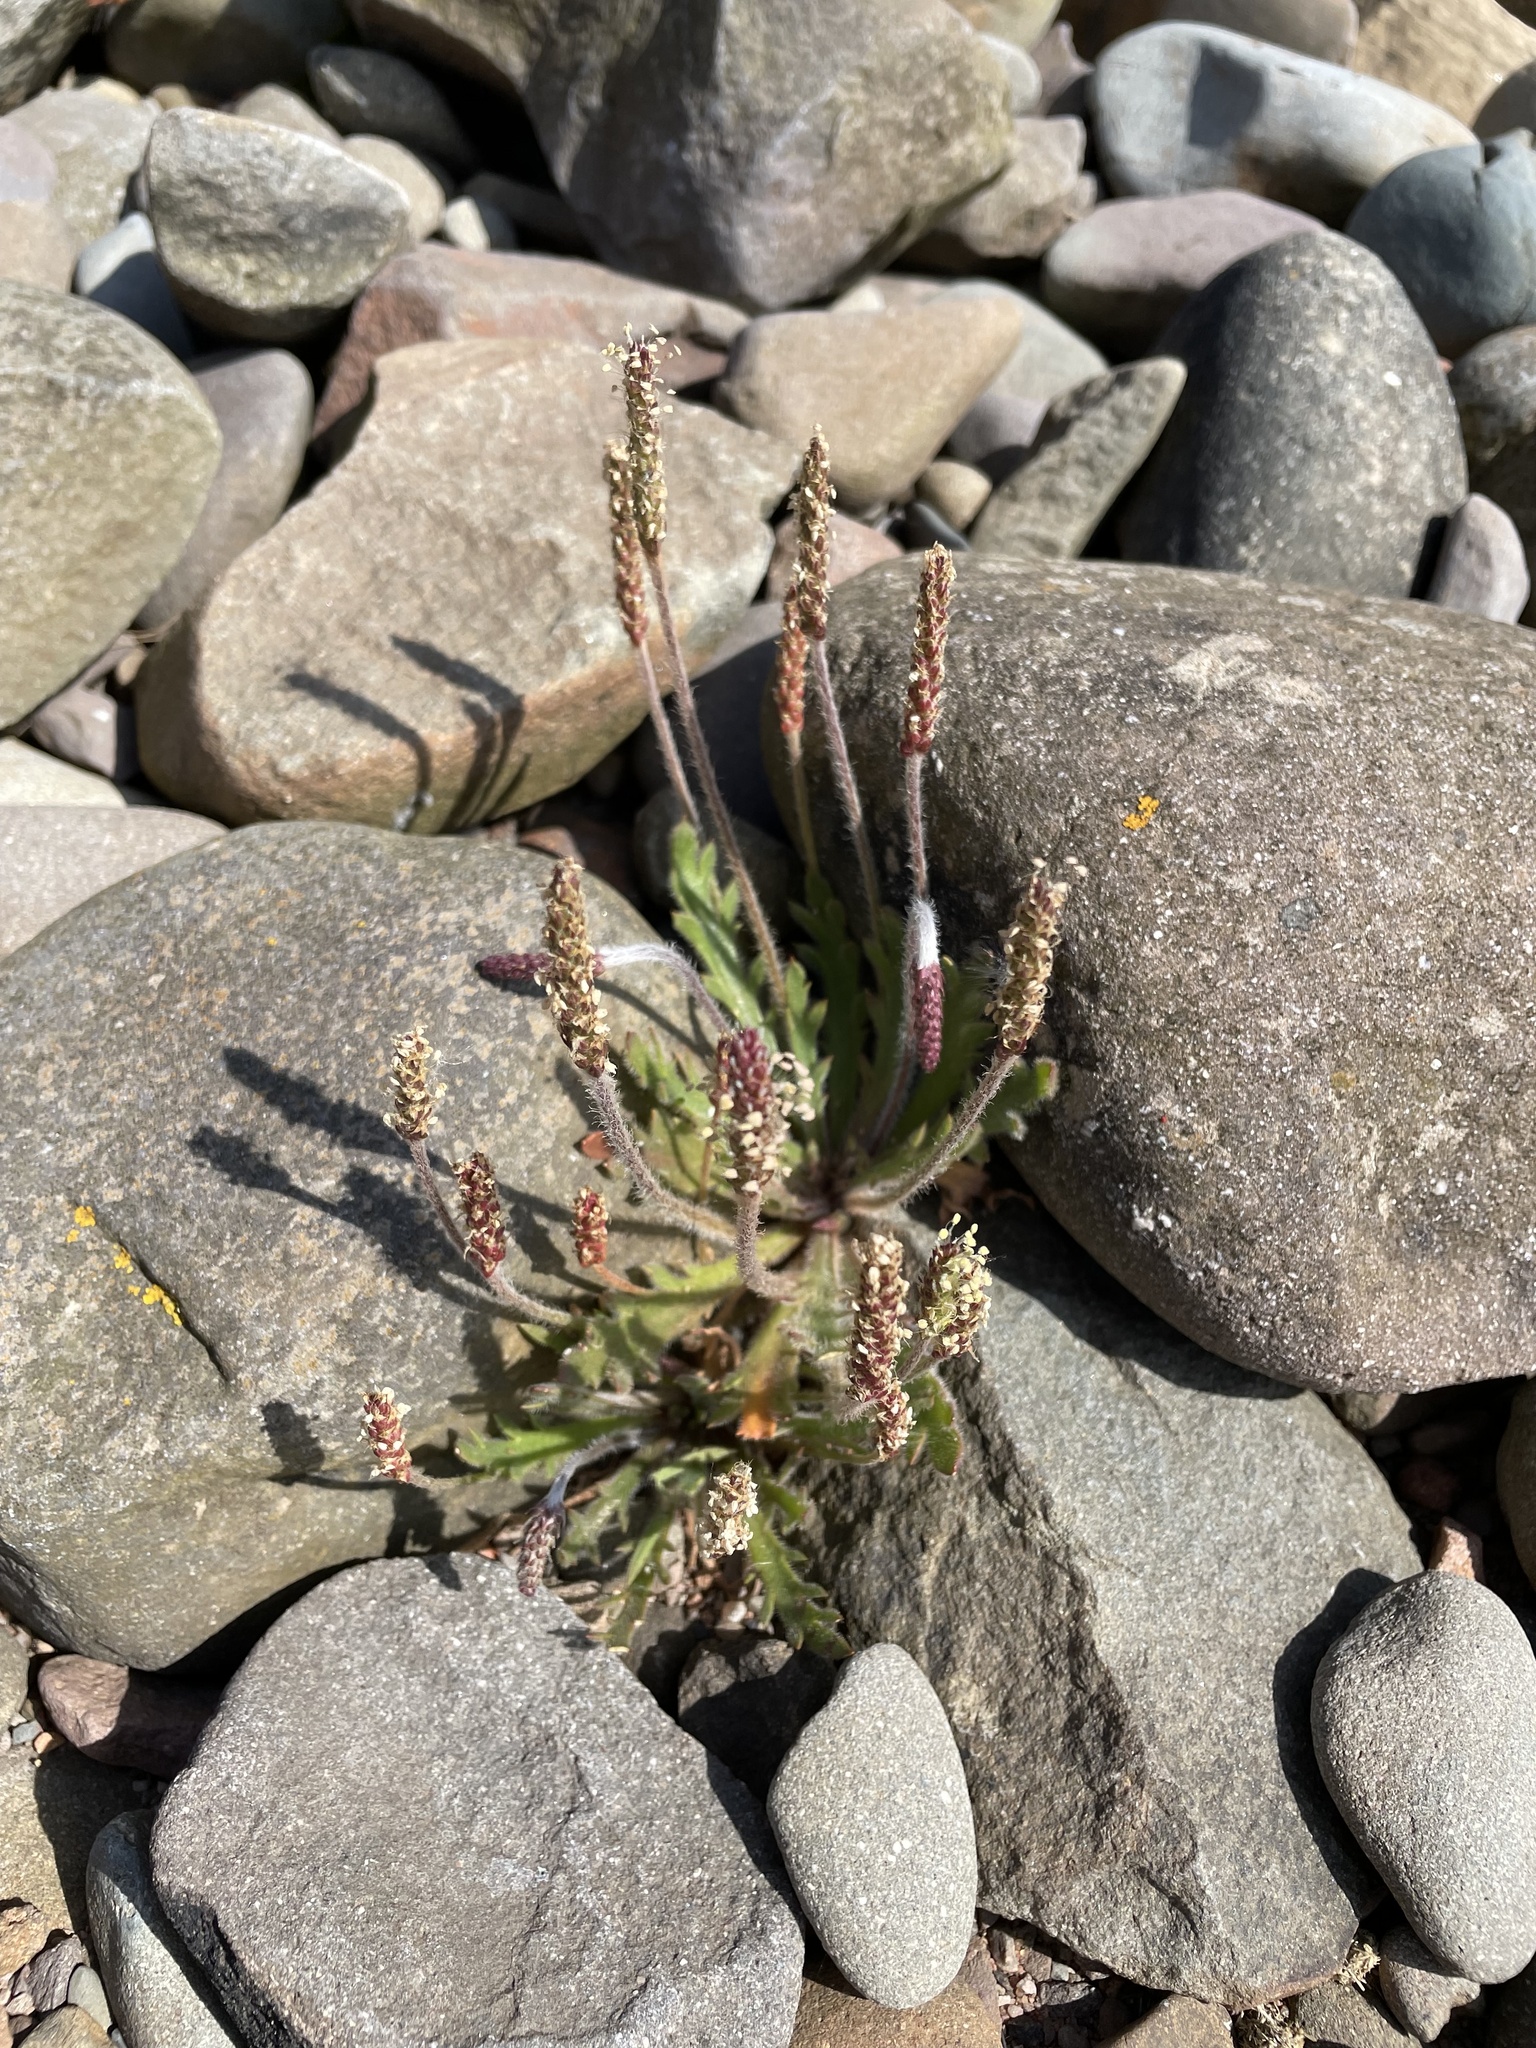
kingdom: Plantae
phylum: Tracheophyta
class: Magnoliopsida
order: Lamiales
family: Plantaginaceae
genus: Plantago
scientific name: Plantago coronopus
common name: Buck's-horn plantain
